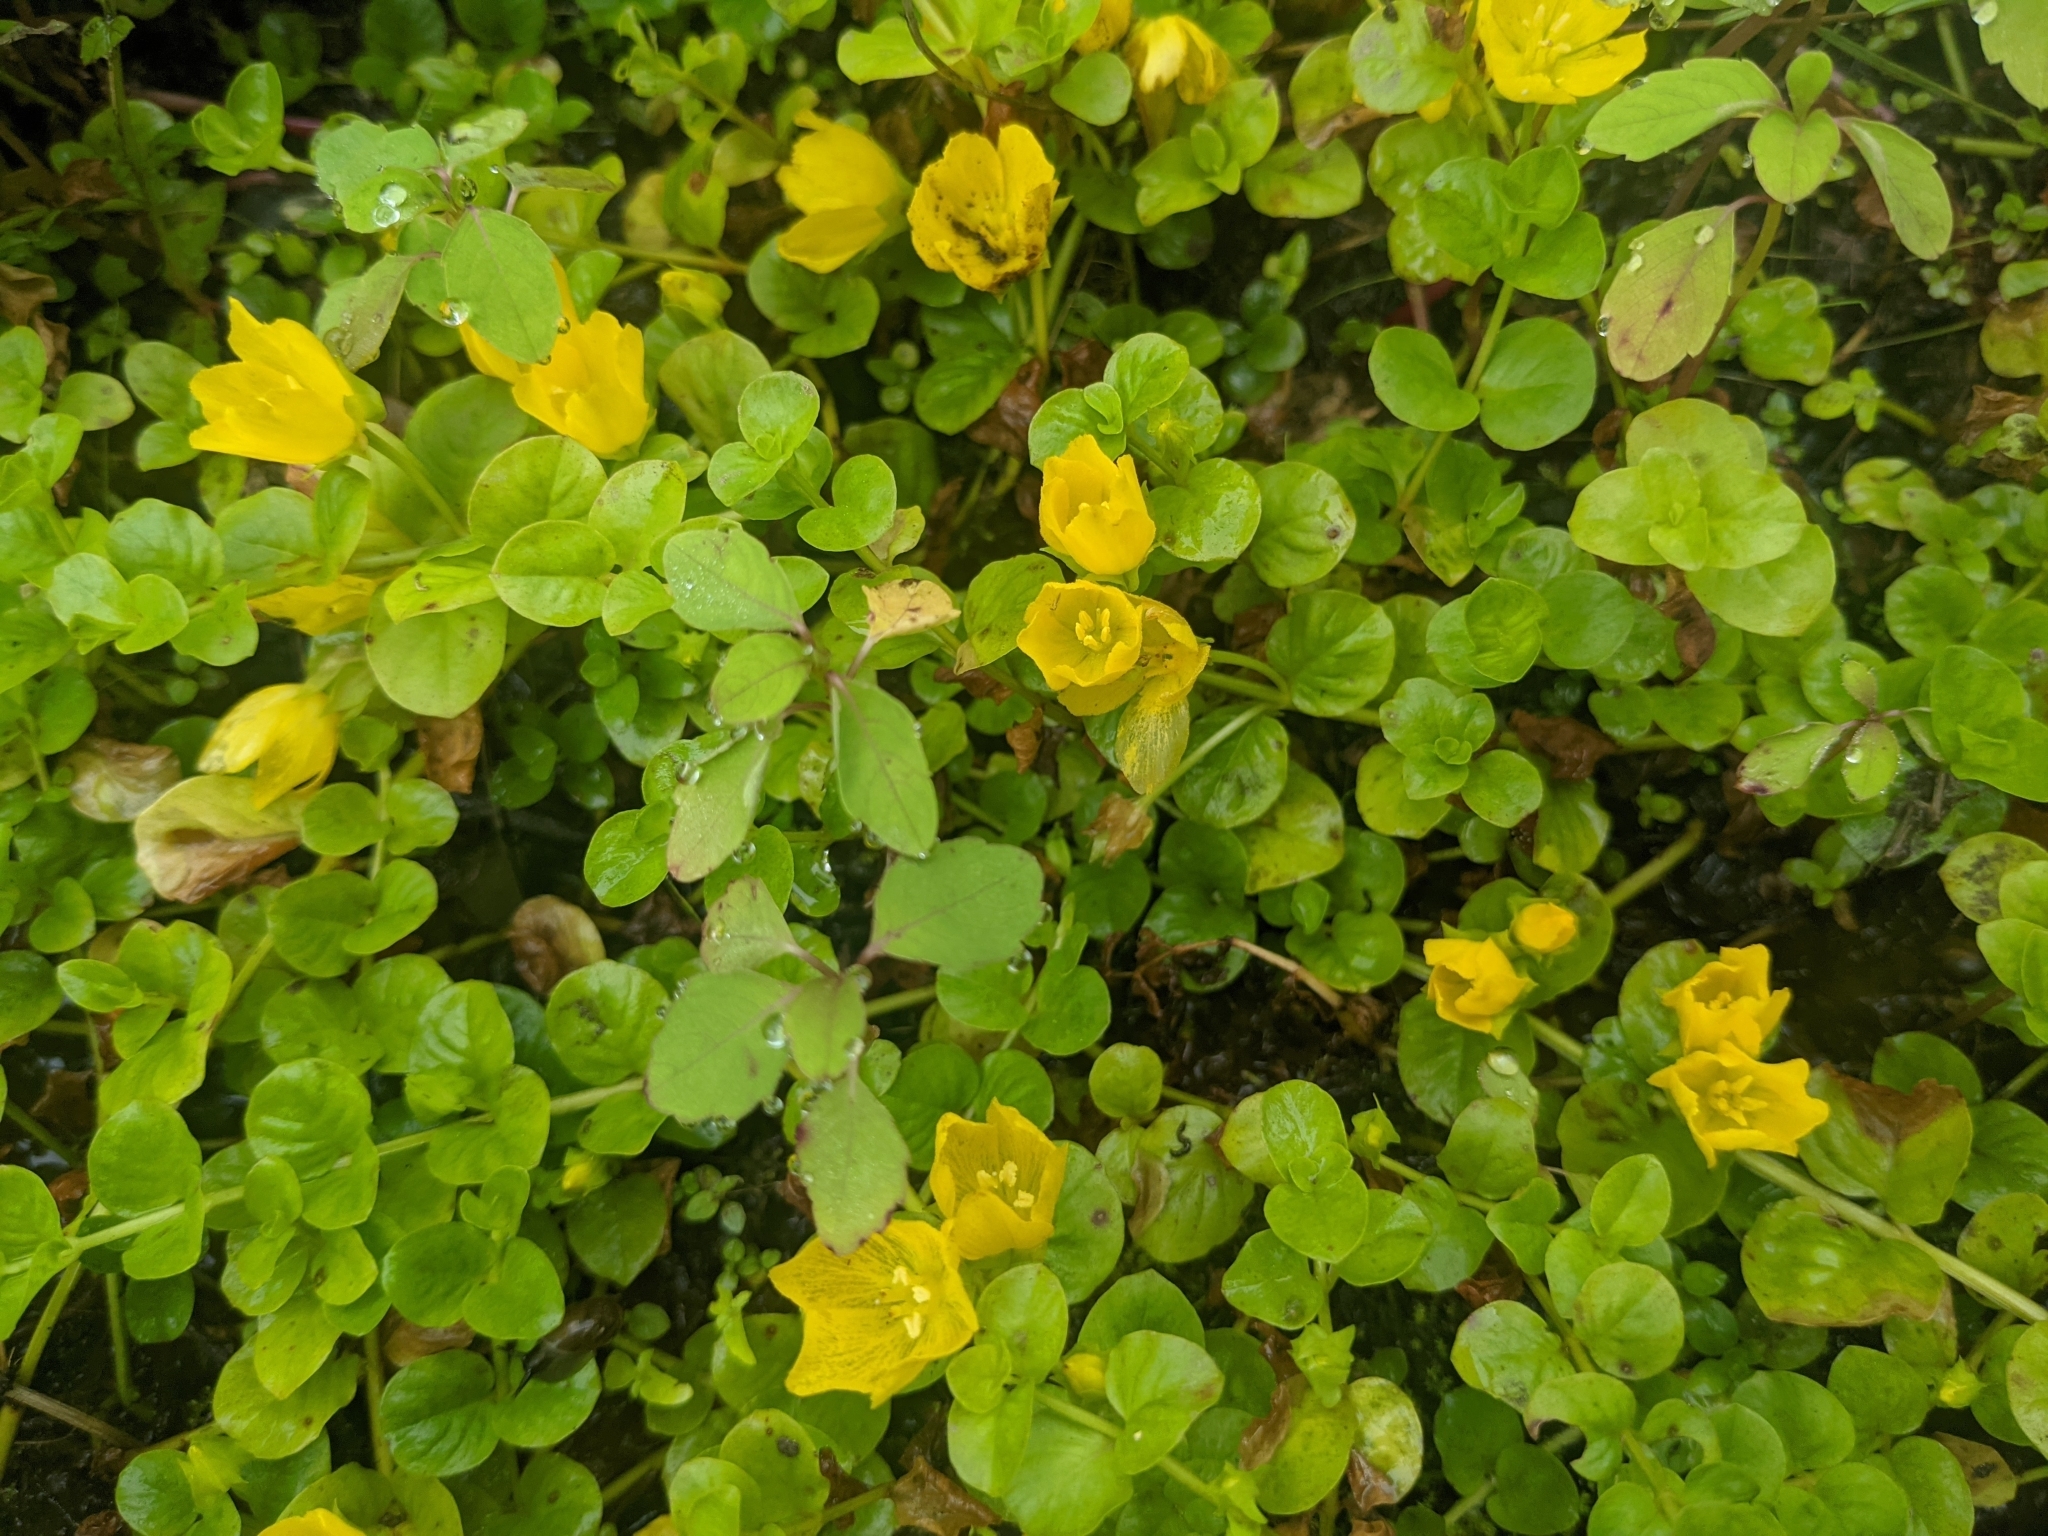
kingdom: Plantae
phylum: Tracheophyta
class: Magnoliopsida
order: Ericales
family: Primulaceae
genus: Lysimachia
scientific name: Lysimachia nummularia
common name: Moneywort
